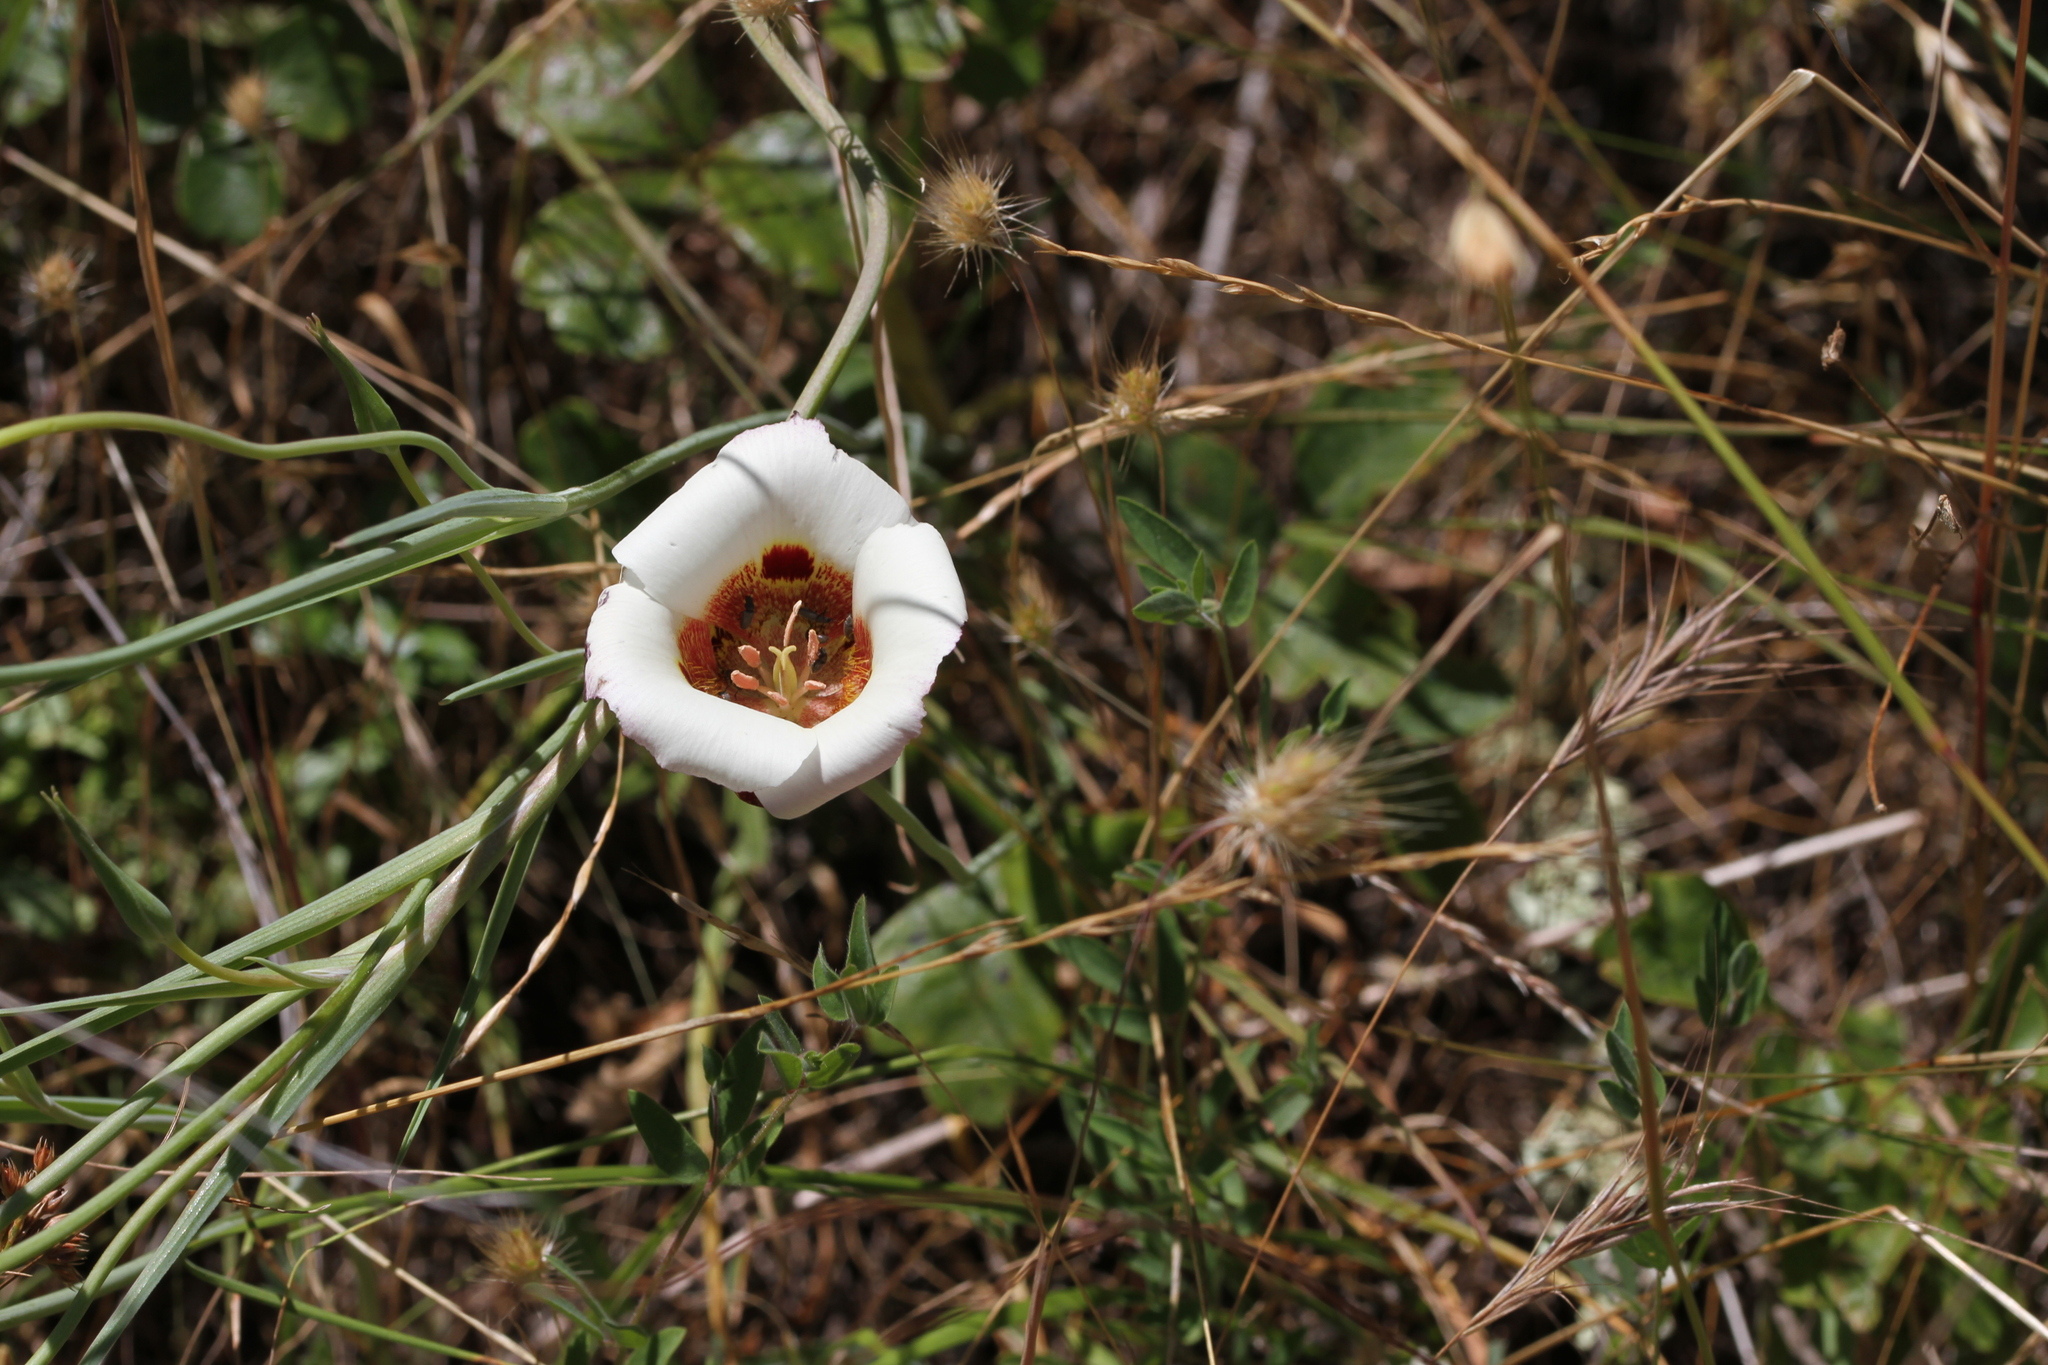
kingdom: Plantae
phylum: Tracheophyta
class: Liliopsida
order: Liliales
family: Liliaceae
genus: Calochortus
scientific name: Calochortus vestae
